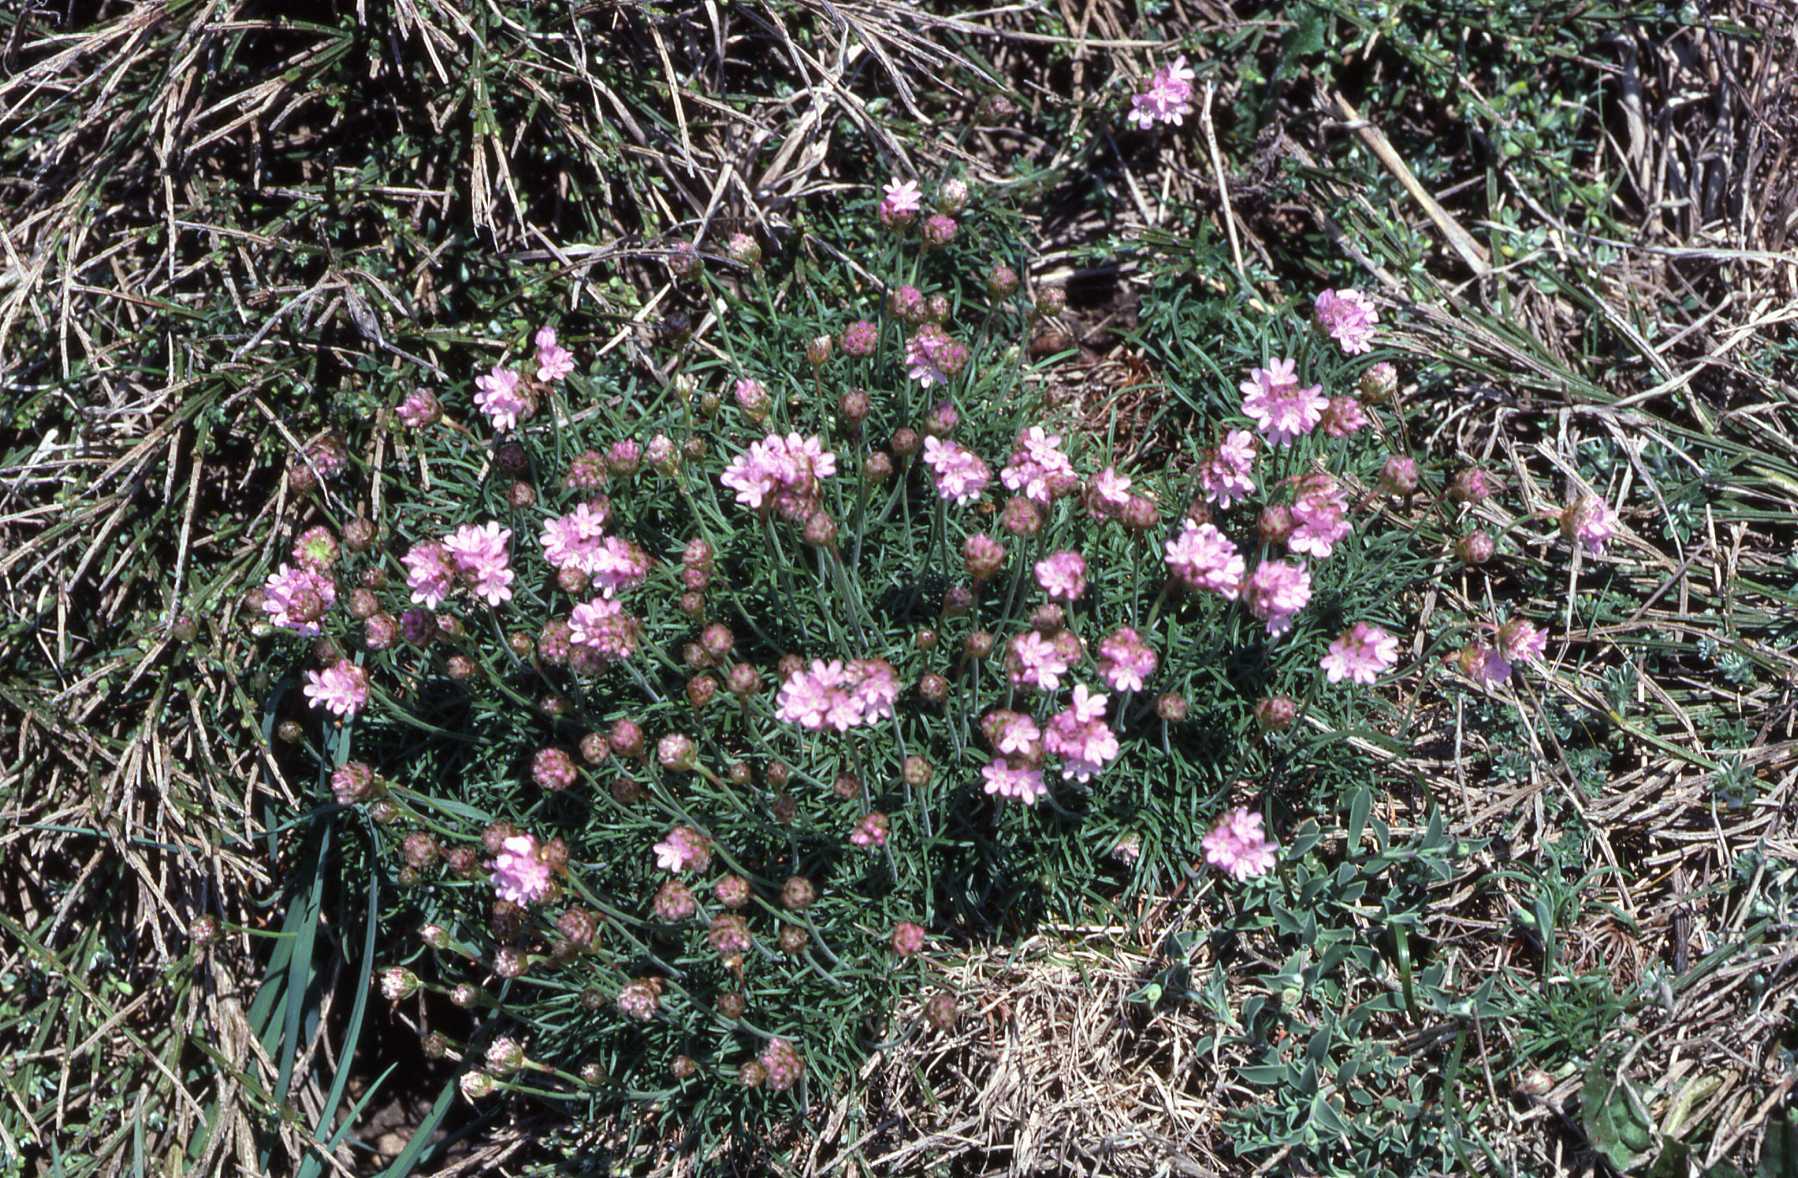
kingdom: Plantae
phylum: Tracheophyta
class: Magnoliopsida
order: Caryophyllales
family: Plumbaginaceae
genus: Armeria
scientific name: Armeria maritima
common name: Thrift
